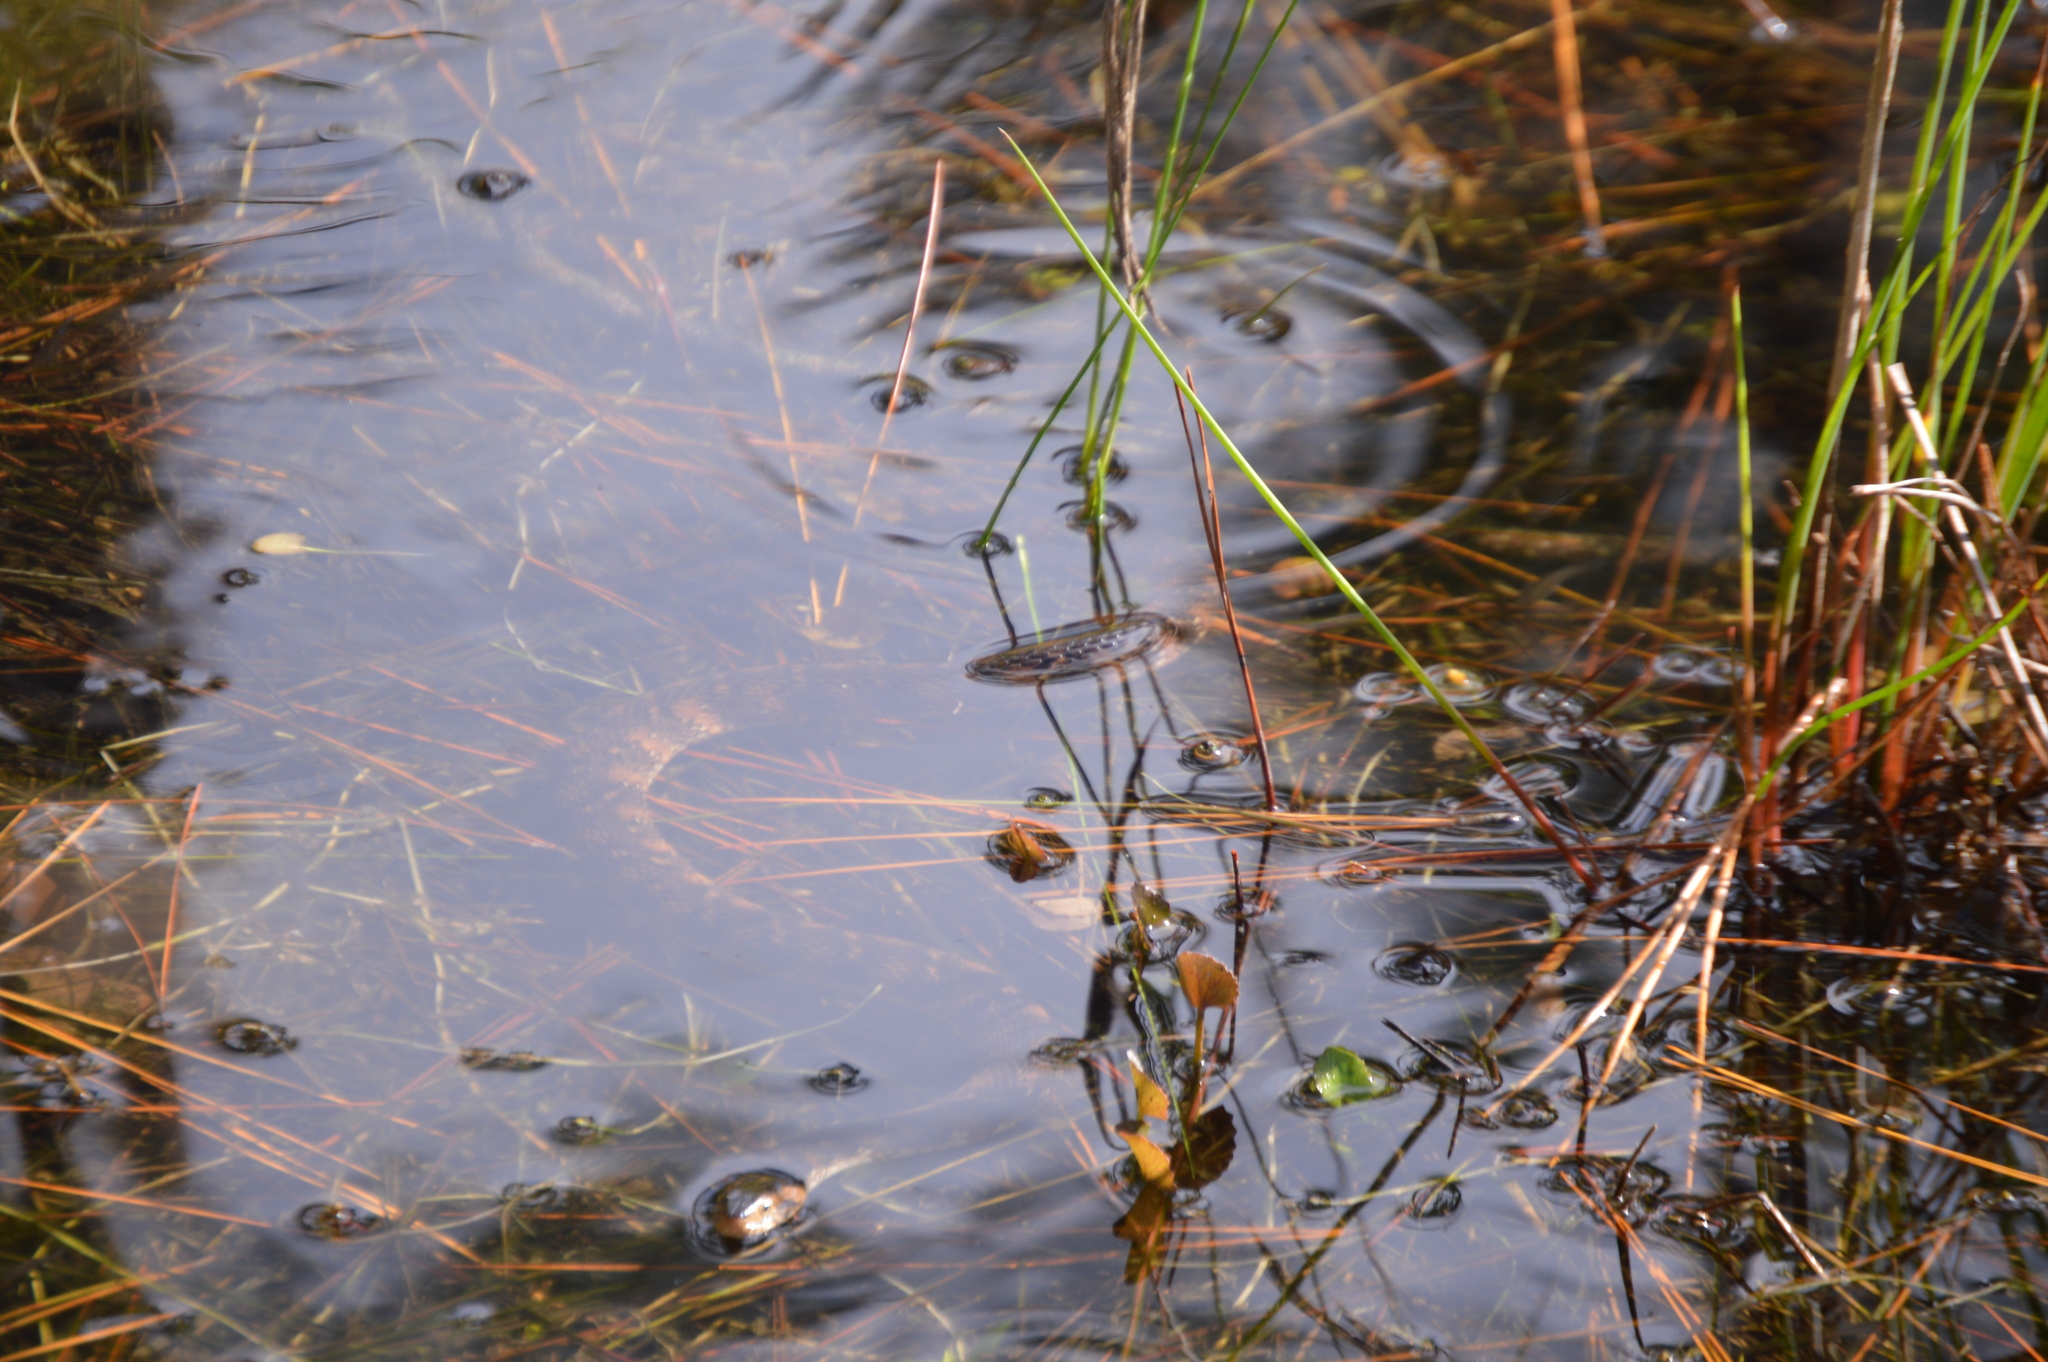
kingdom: Animalia
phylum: Chordata
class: Squamata
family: Colubridae
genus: Nerodia
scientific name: Nerodia fasciata
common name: Southern water snake
